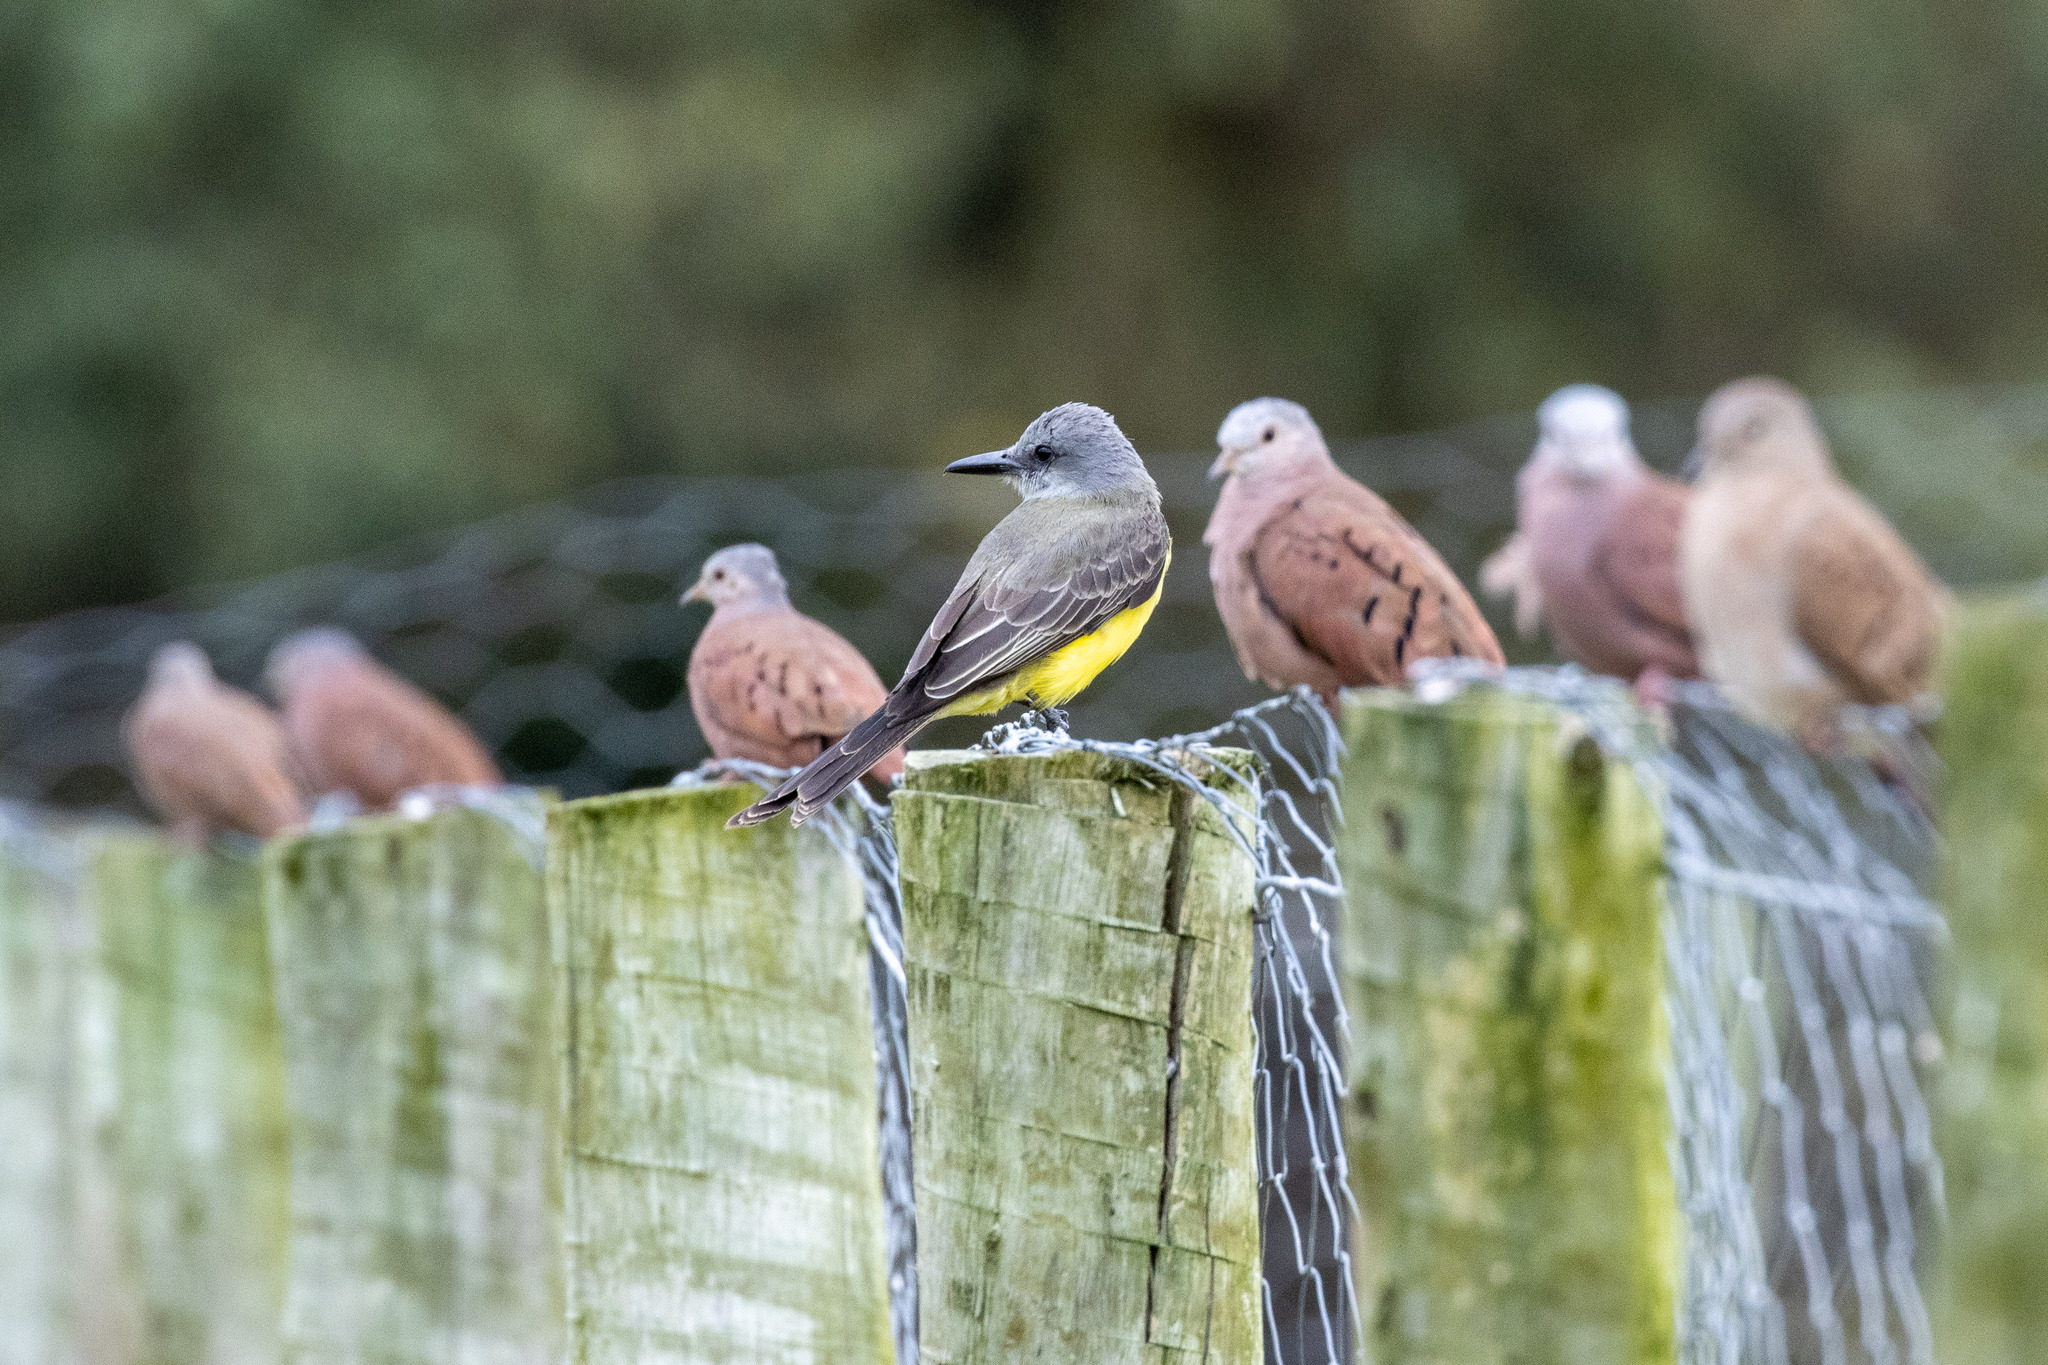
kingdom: Animalia
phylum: Chordata
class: Aves
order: Passeriformes
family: Tyrannidae
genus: Tyrannus
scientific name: Tyrannus melancholicus
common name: Tropical kingbird
